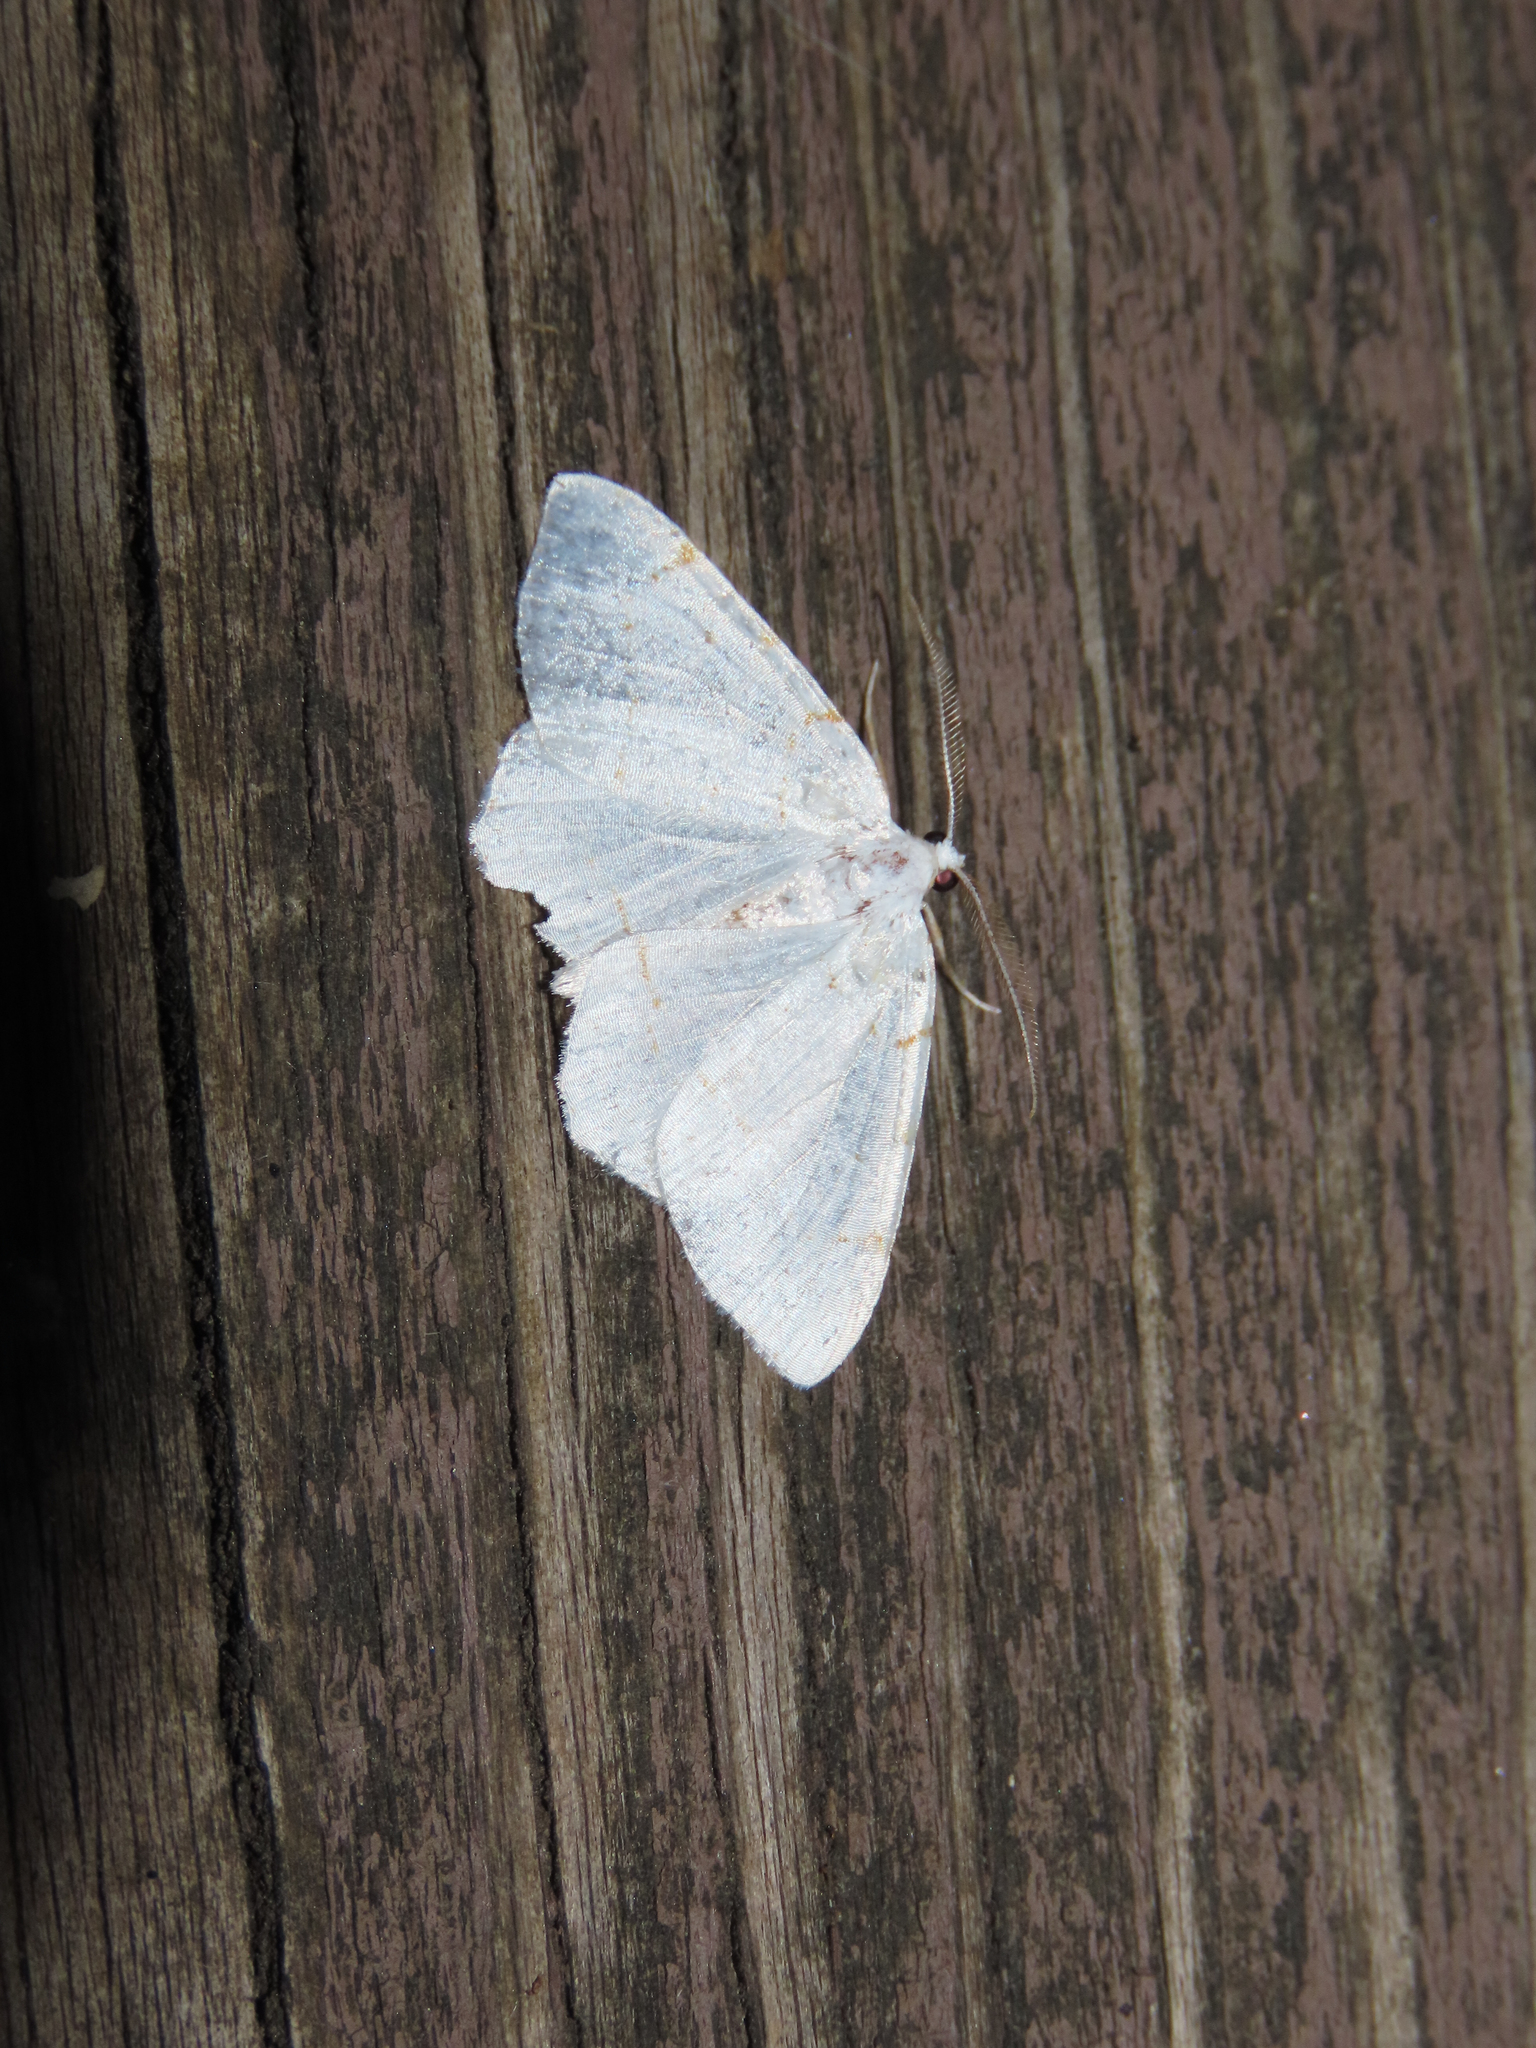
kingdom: Animalia
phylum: Arthropoda
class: Insecta
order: Lepidoptera
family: Geometridae
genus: Macaria
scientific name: Macaria pustularia
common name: Lesser maple spanworm moth
